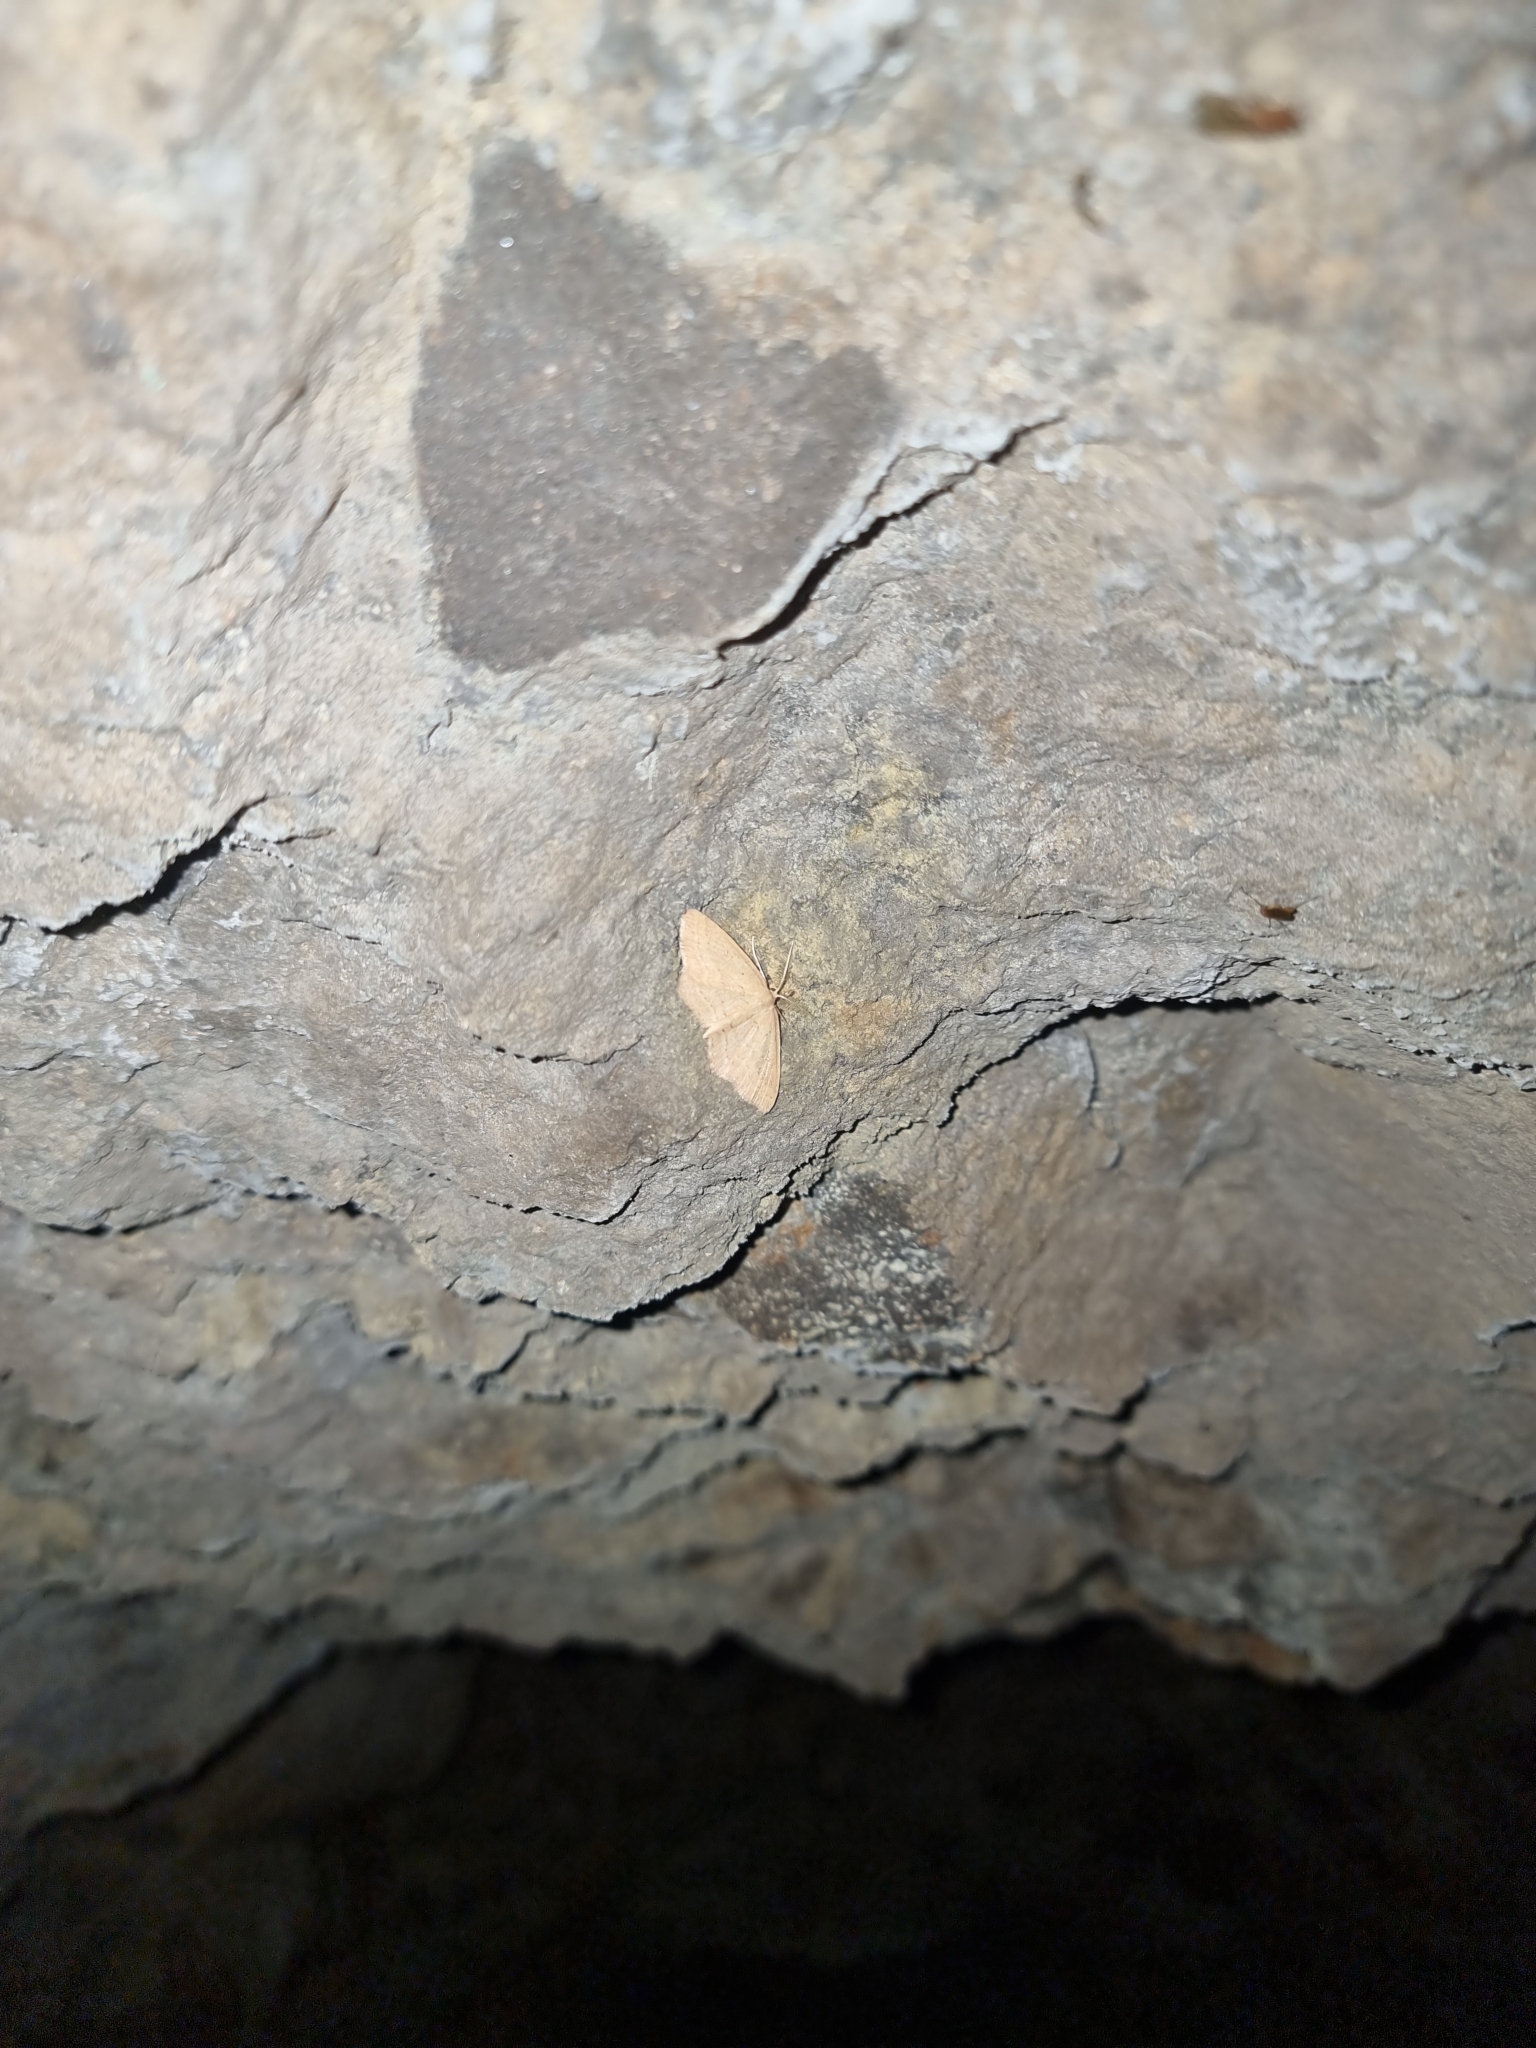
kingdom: Animalia
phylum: Arthropoda
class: Insecta
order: Lepidoptera
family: Geometridae
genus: Cyclophora
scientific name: Cyclophora maderensis
